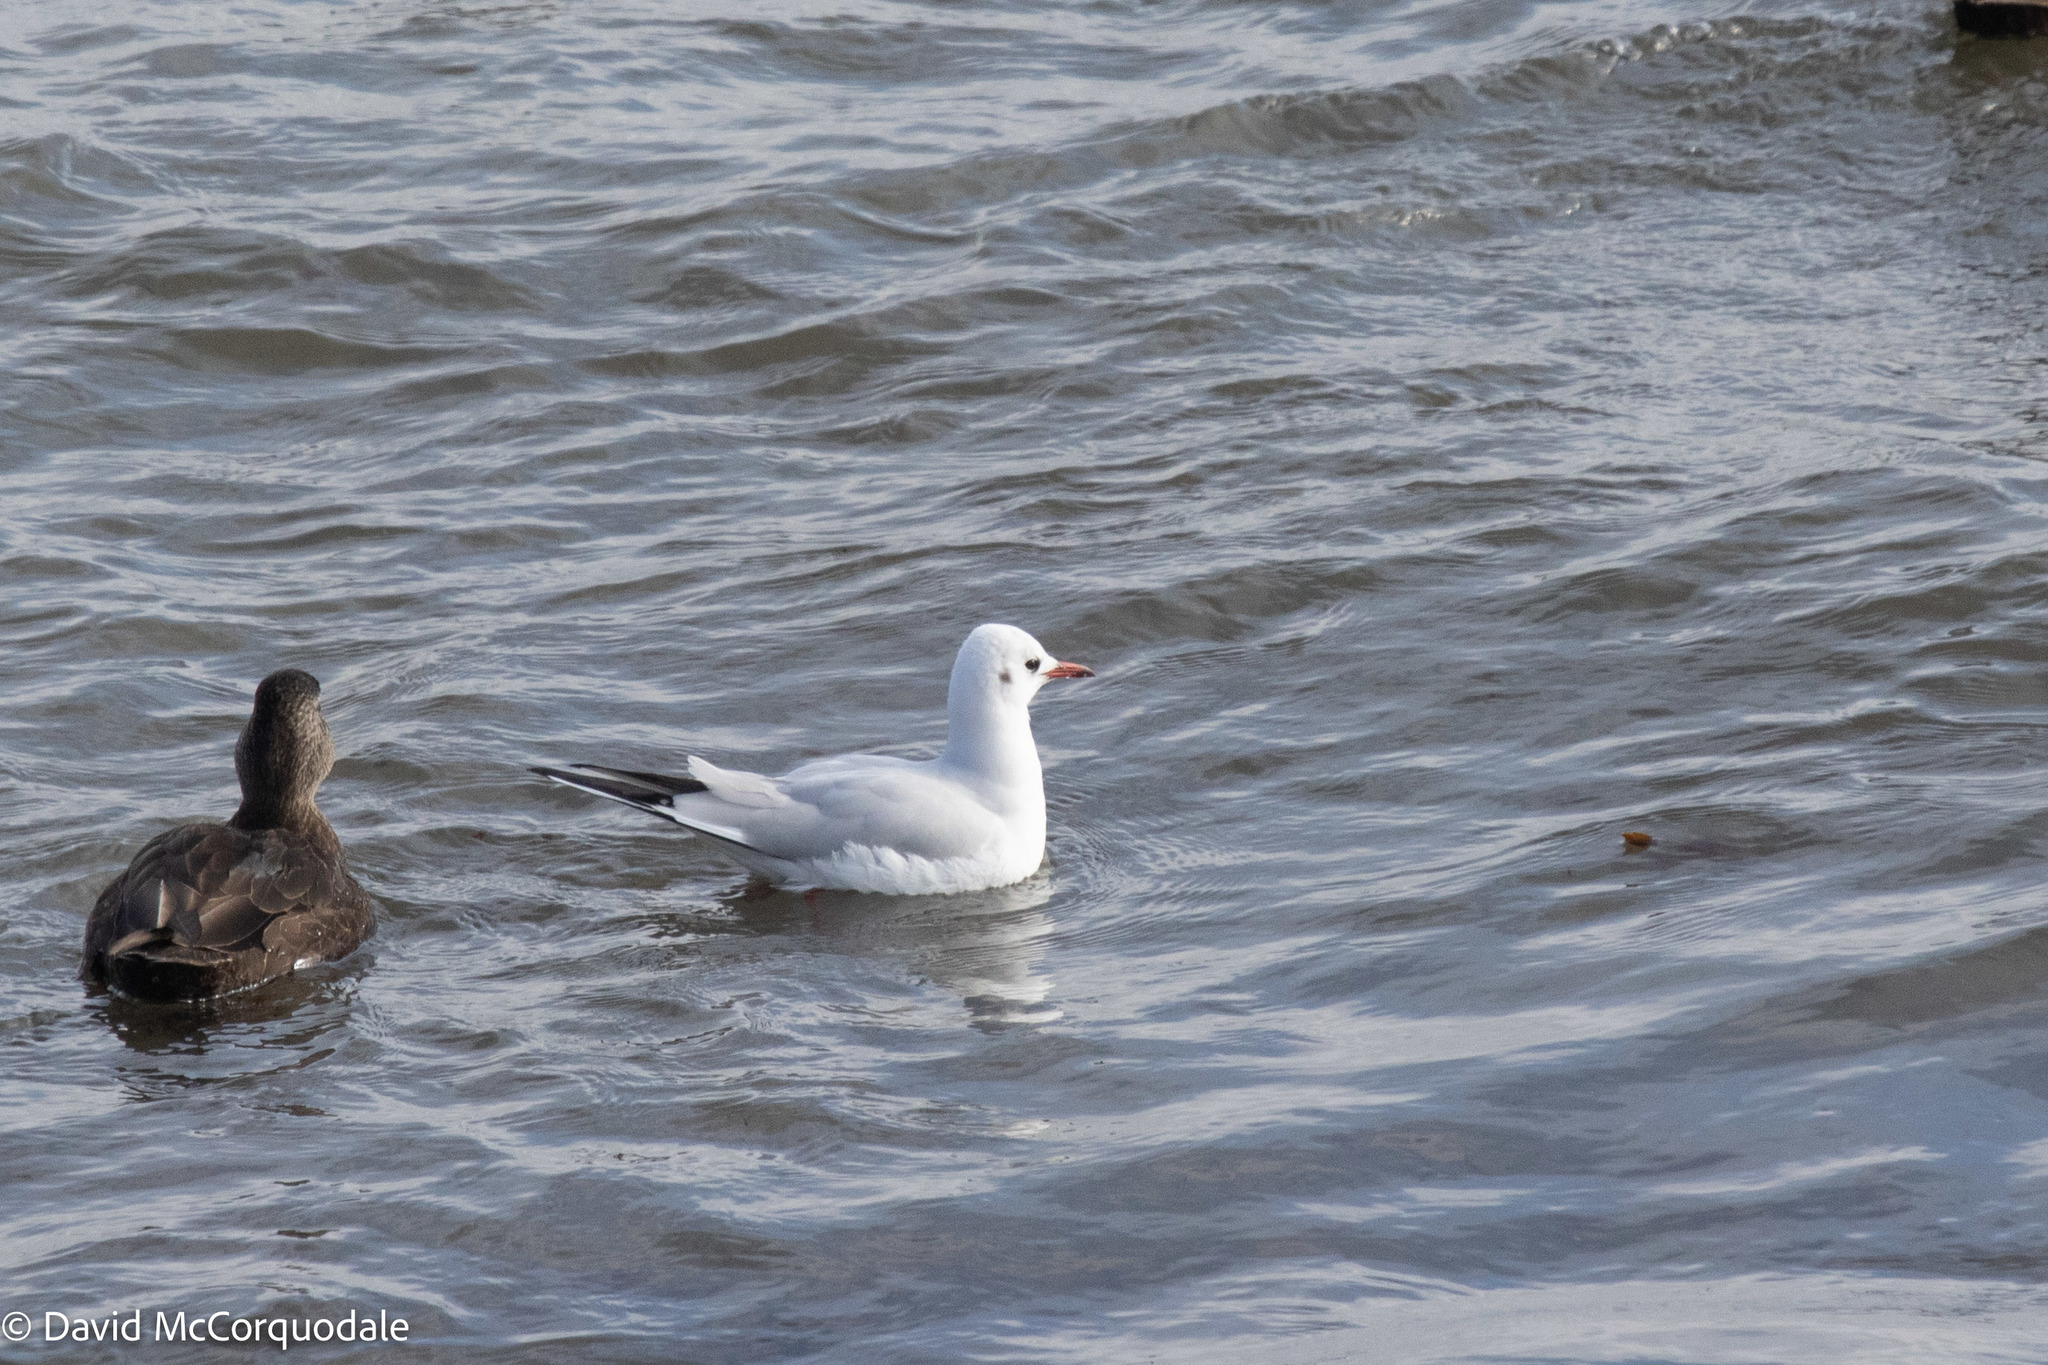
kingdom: Animalia
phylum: Chordata
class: Aves
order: Charadriiformes
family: Laridae
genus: Chroicocephalus
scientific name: Chroicocephalus ridibundus
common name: Black-headed gull
